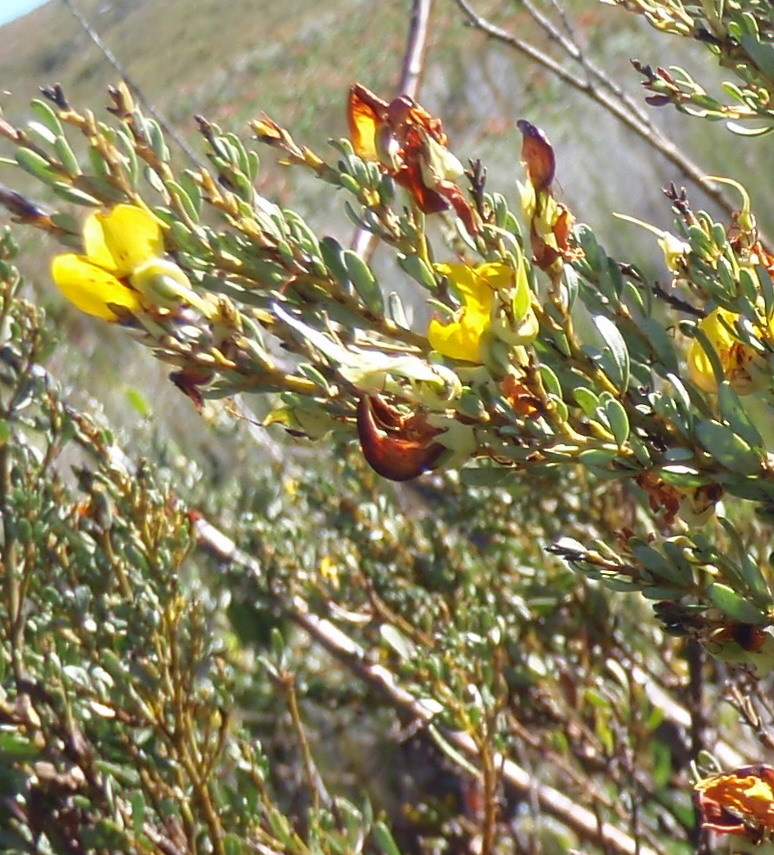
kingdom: Plantae
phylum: Tracheophyta
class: Magnoliopsida
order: Fabales
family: Fabaceae
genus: Cyclopia
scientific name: Cyclopia subternata
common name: Honeybush tea
